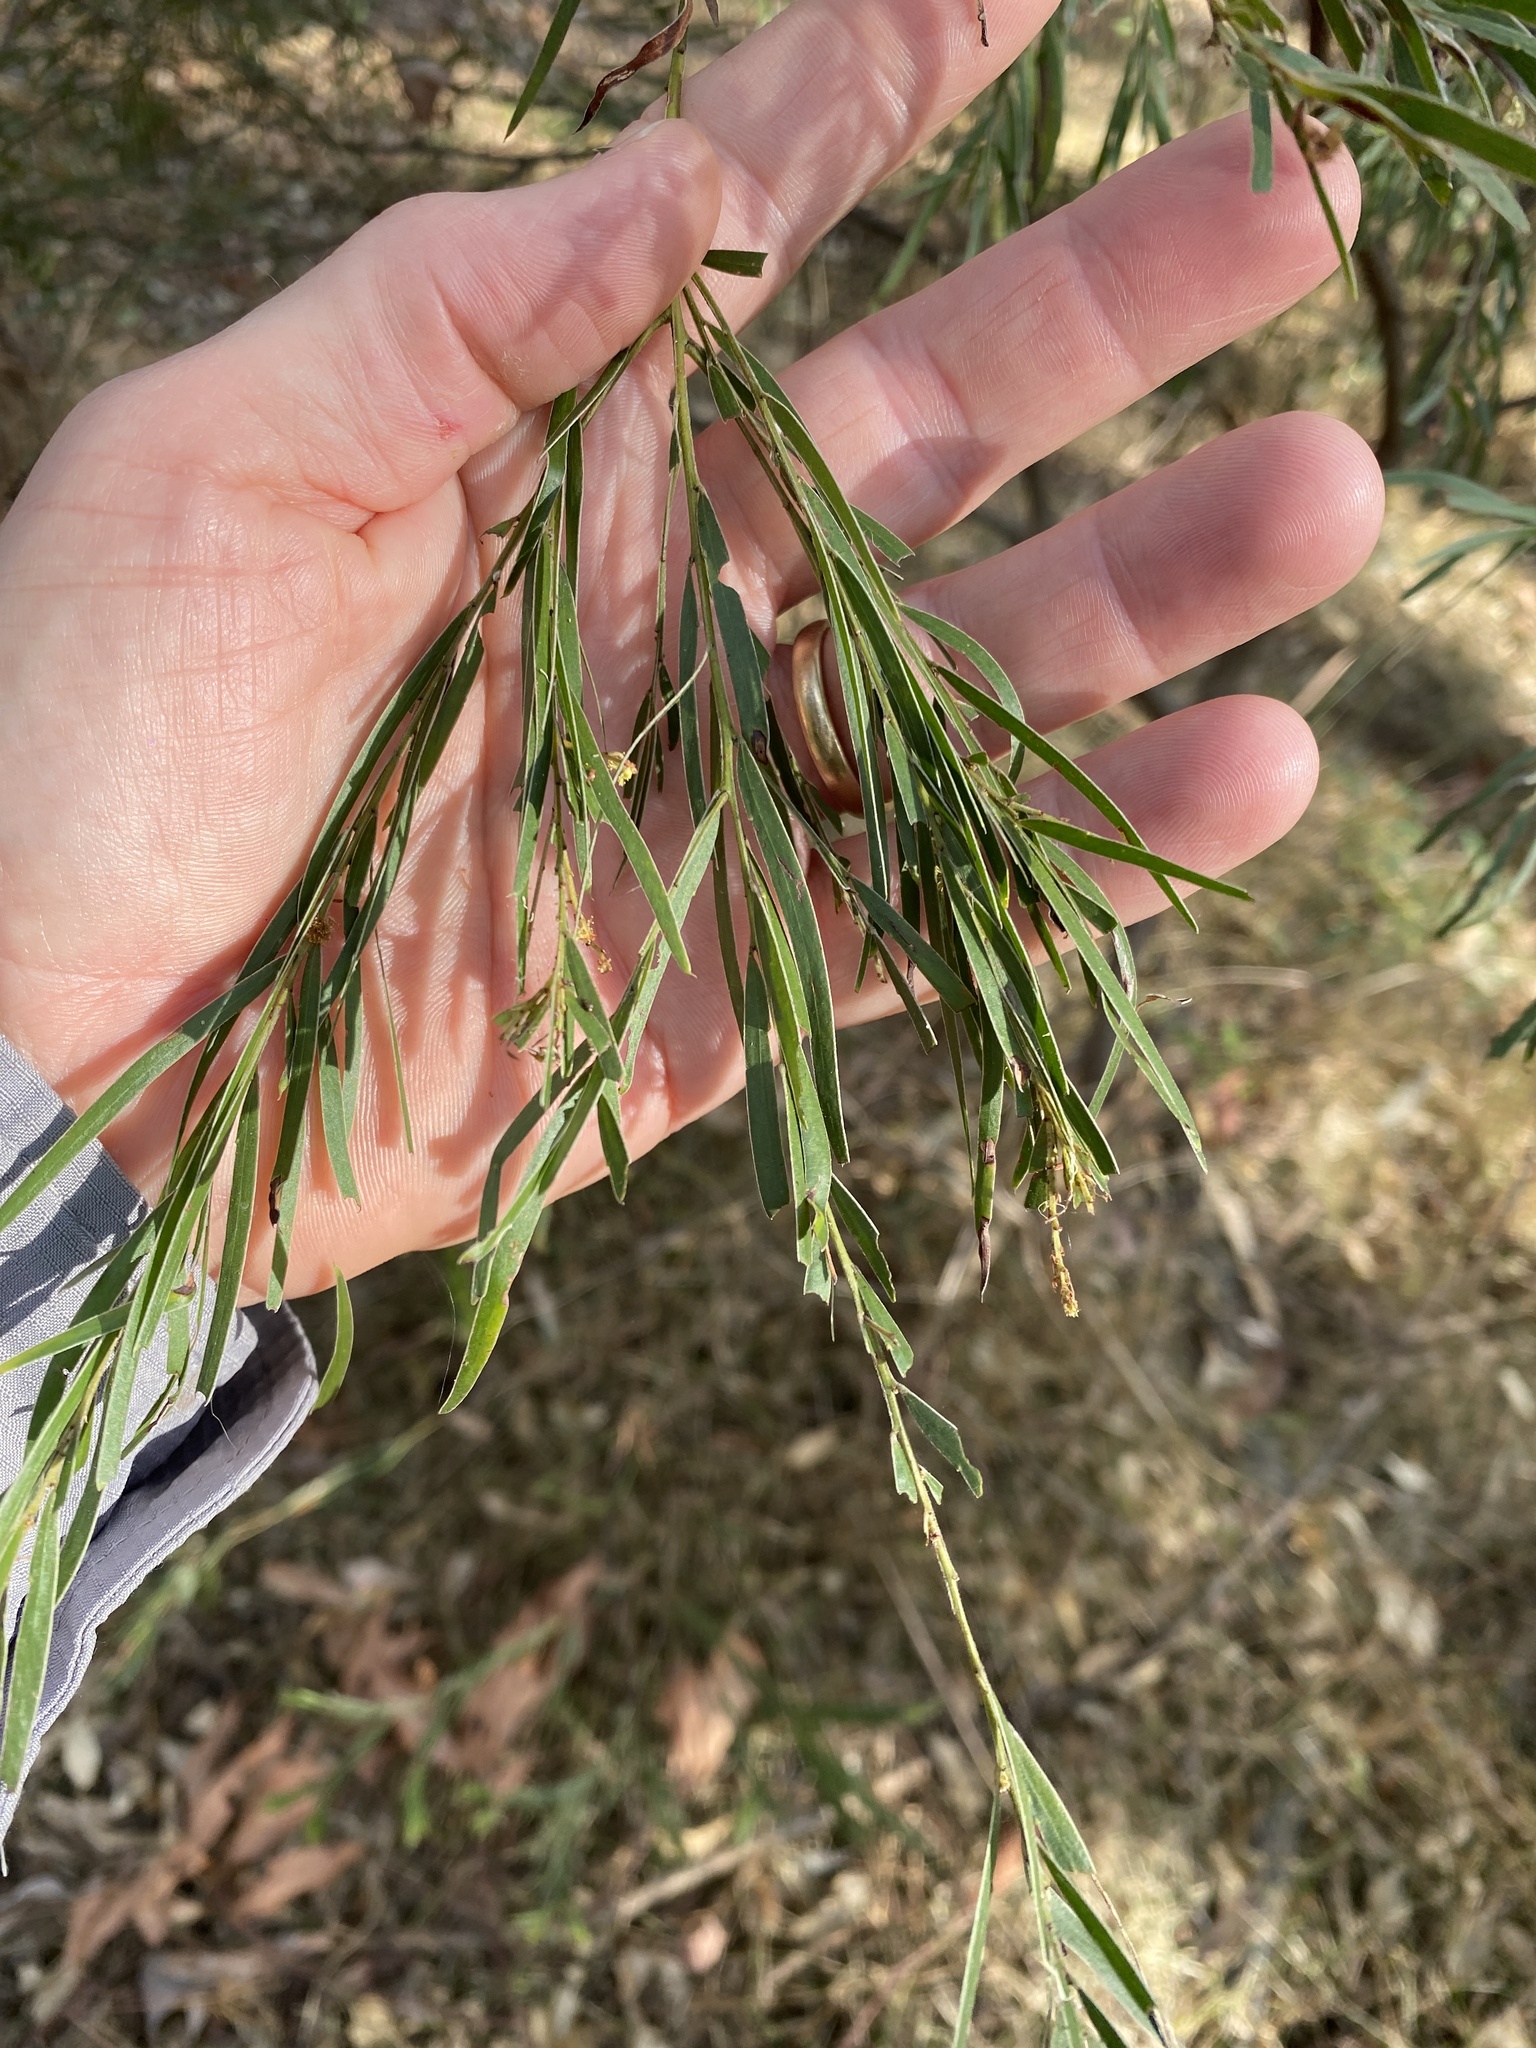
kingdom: Plantae
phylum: Tracheophyta
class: Magnoliopsida
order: Fabales
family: Fabaceae
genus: Acacia
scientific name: Acacia fimbriata
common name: Brisbane golden wattle
